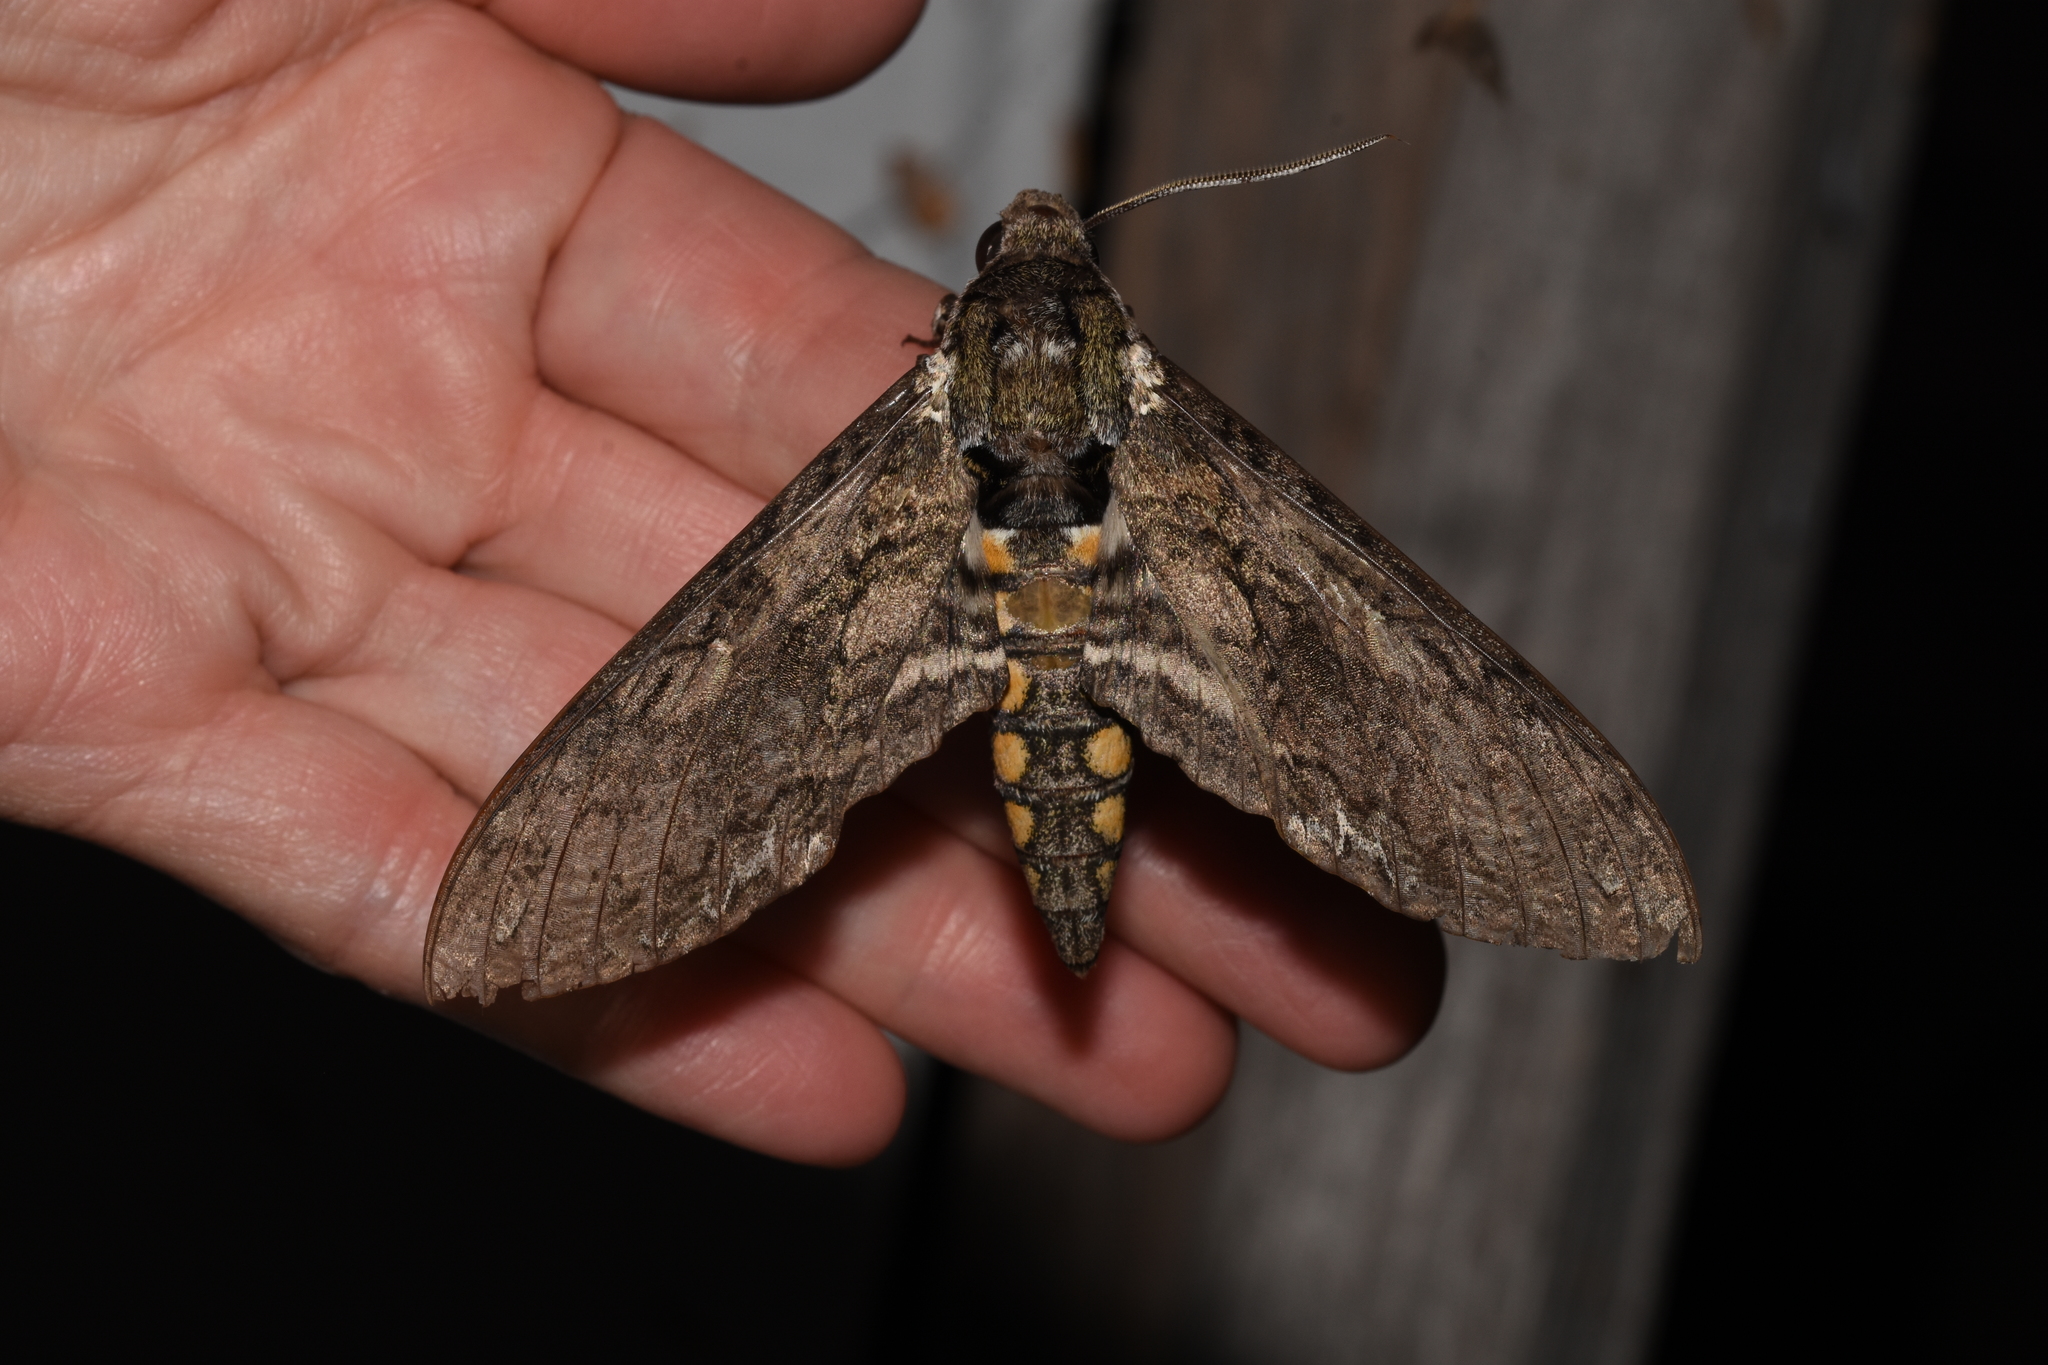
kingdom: Animalia
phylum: Arthropoda
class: Insecta
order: Lepidoptera
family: Sphingidae
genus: Manduca
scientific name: Manduca sexta
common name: Carolina sphinx
